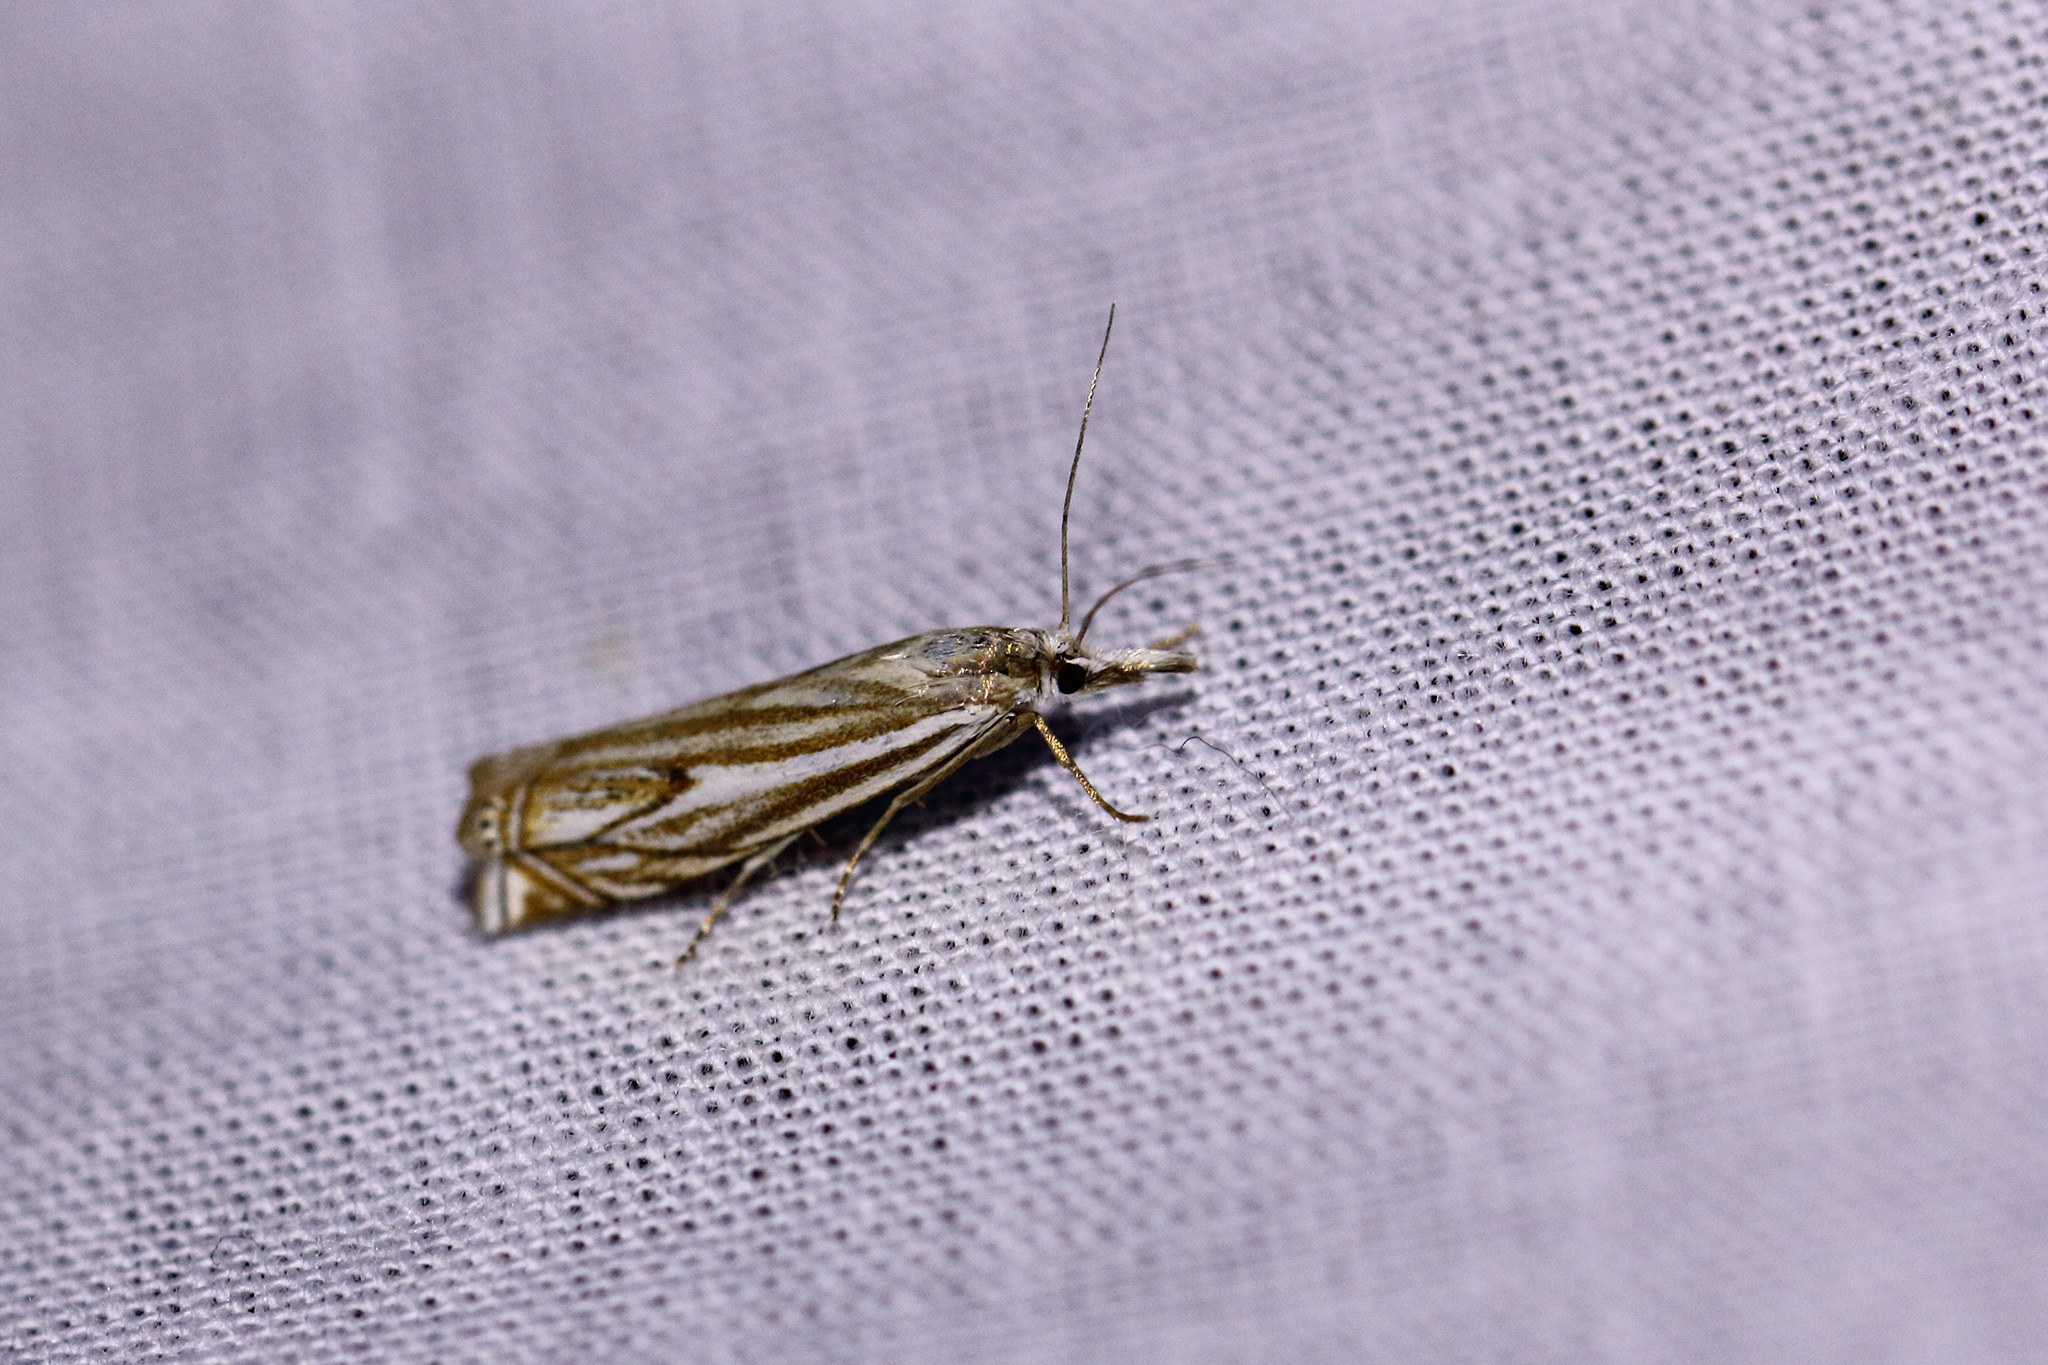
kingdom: Animalia
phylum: Arthropoda
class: Insecta
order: Lepidoptera
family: Crambidae
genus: Crambus
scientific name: Crambus nemorella
